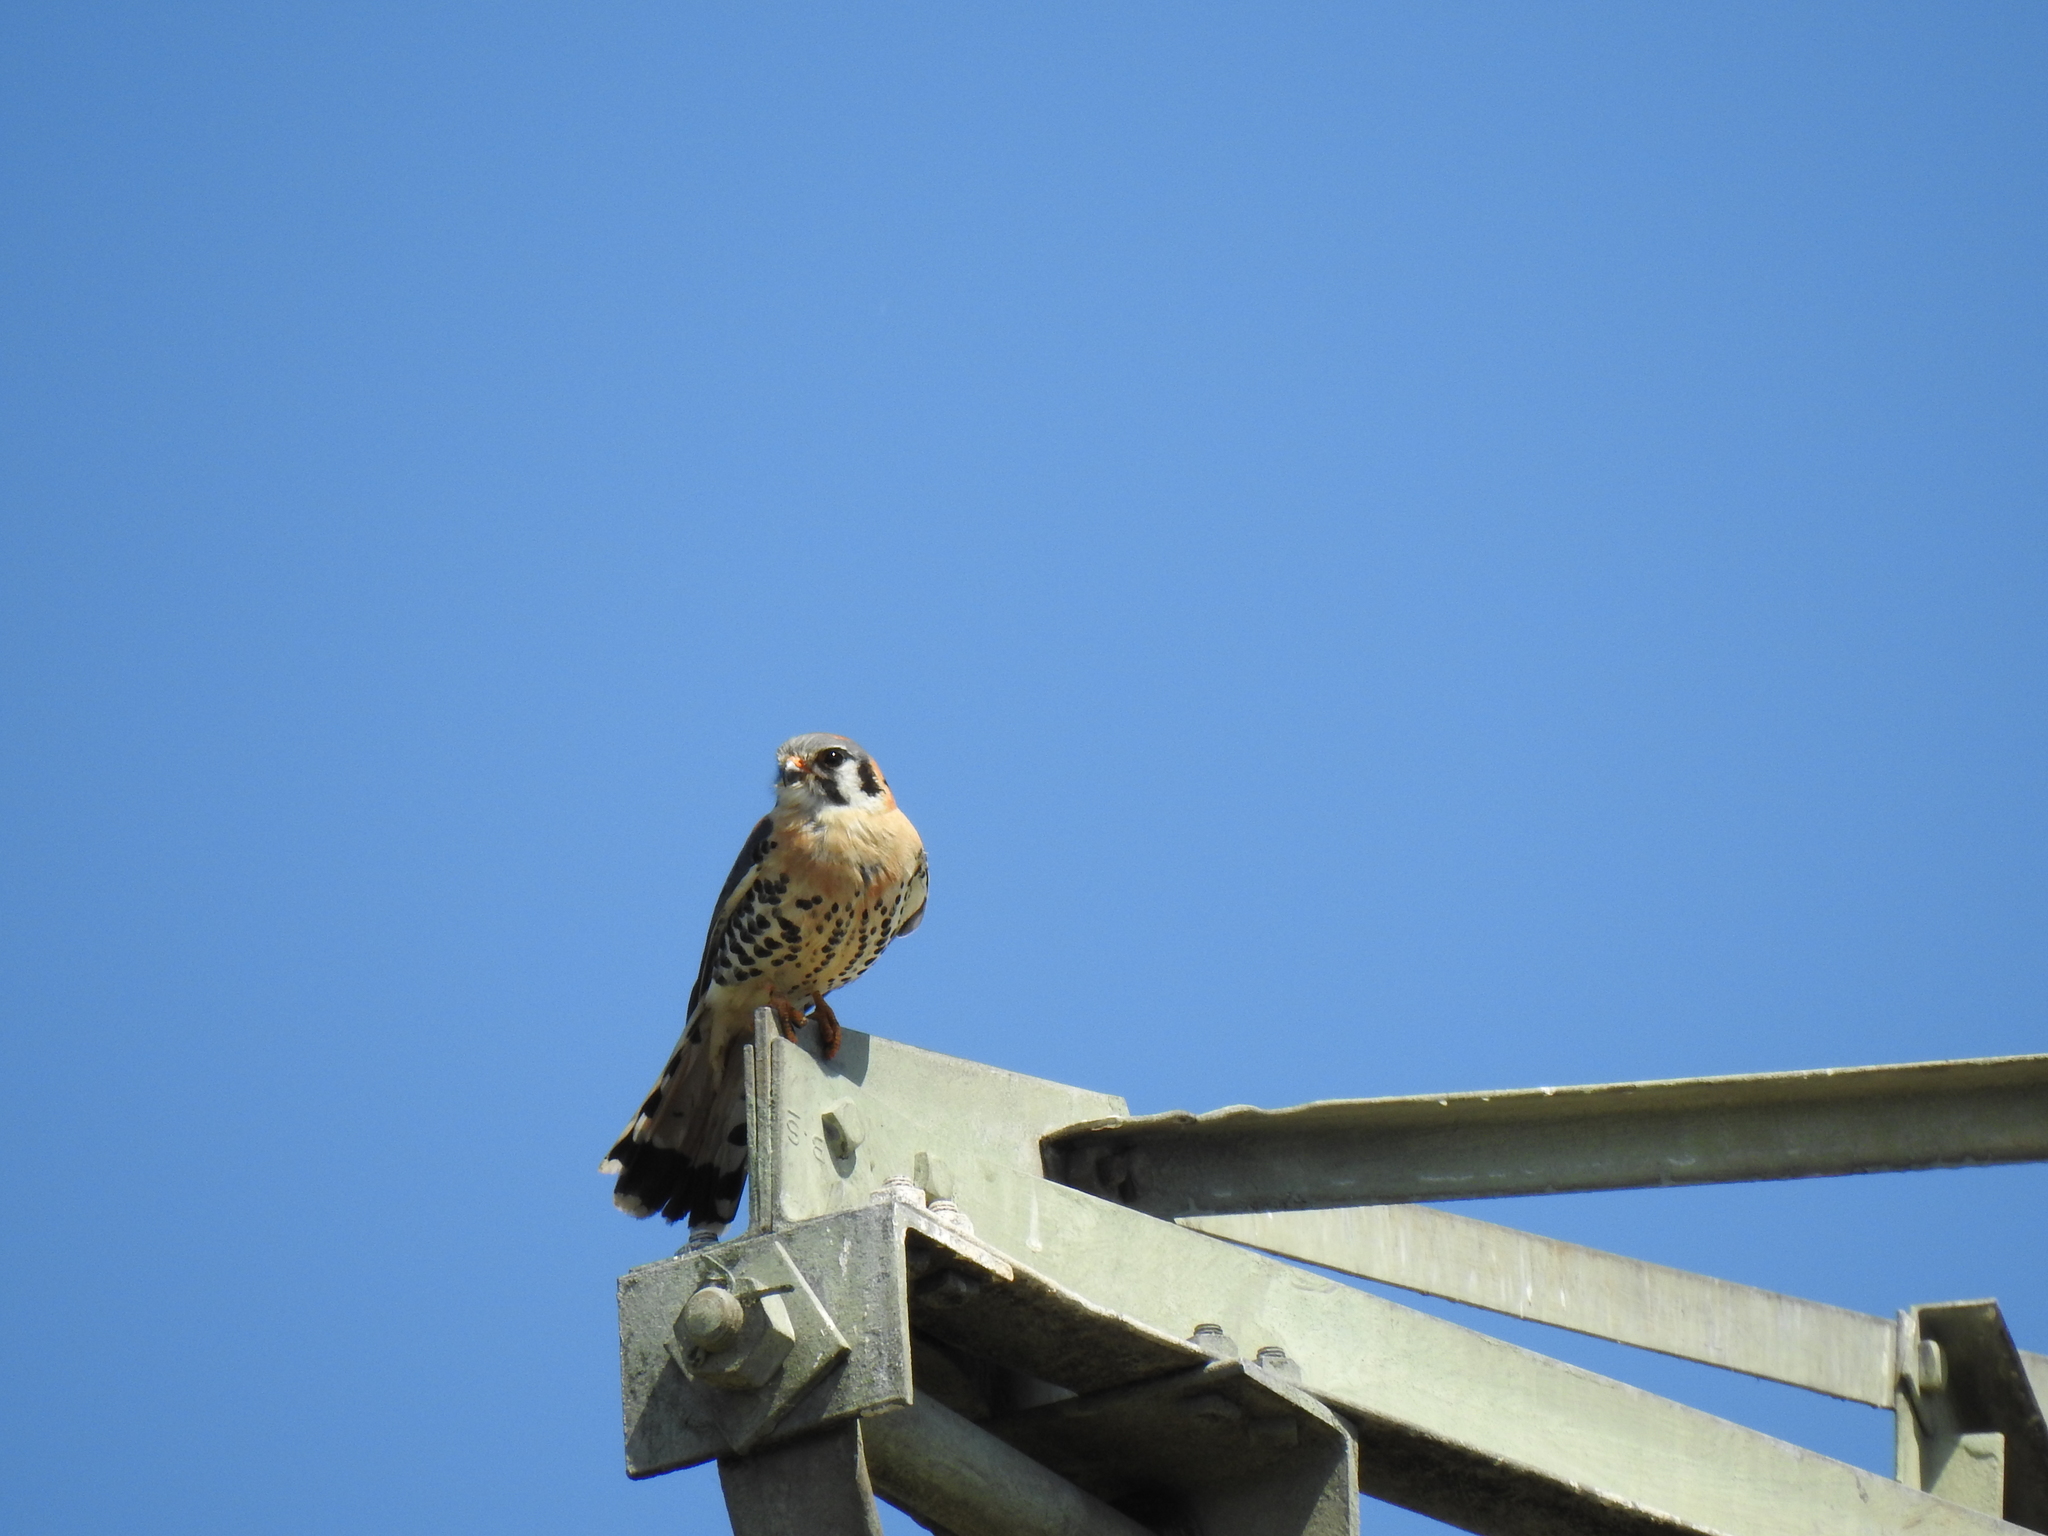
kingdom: Animalia
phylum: Chordata
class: Aves
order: Falconiformes
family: Falconidae
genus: Falco
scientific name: Falco sparverius
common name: American kestrel
